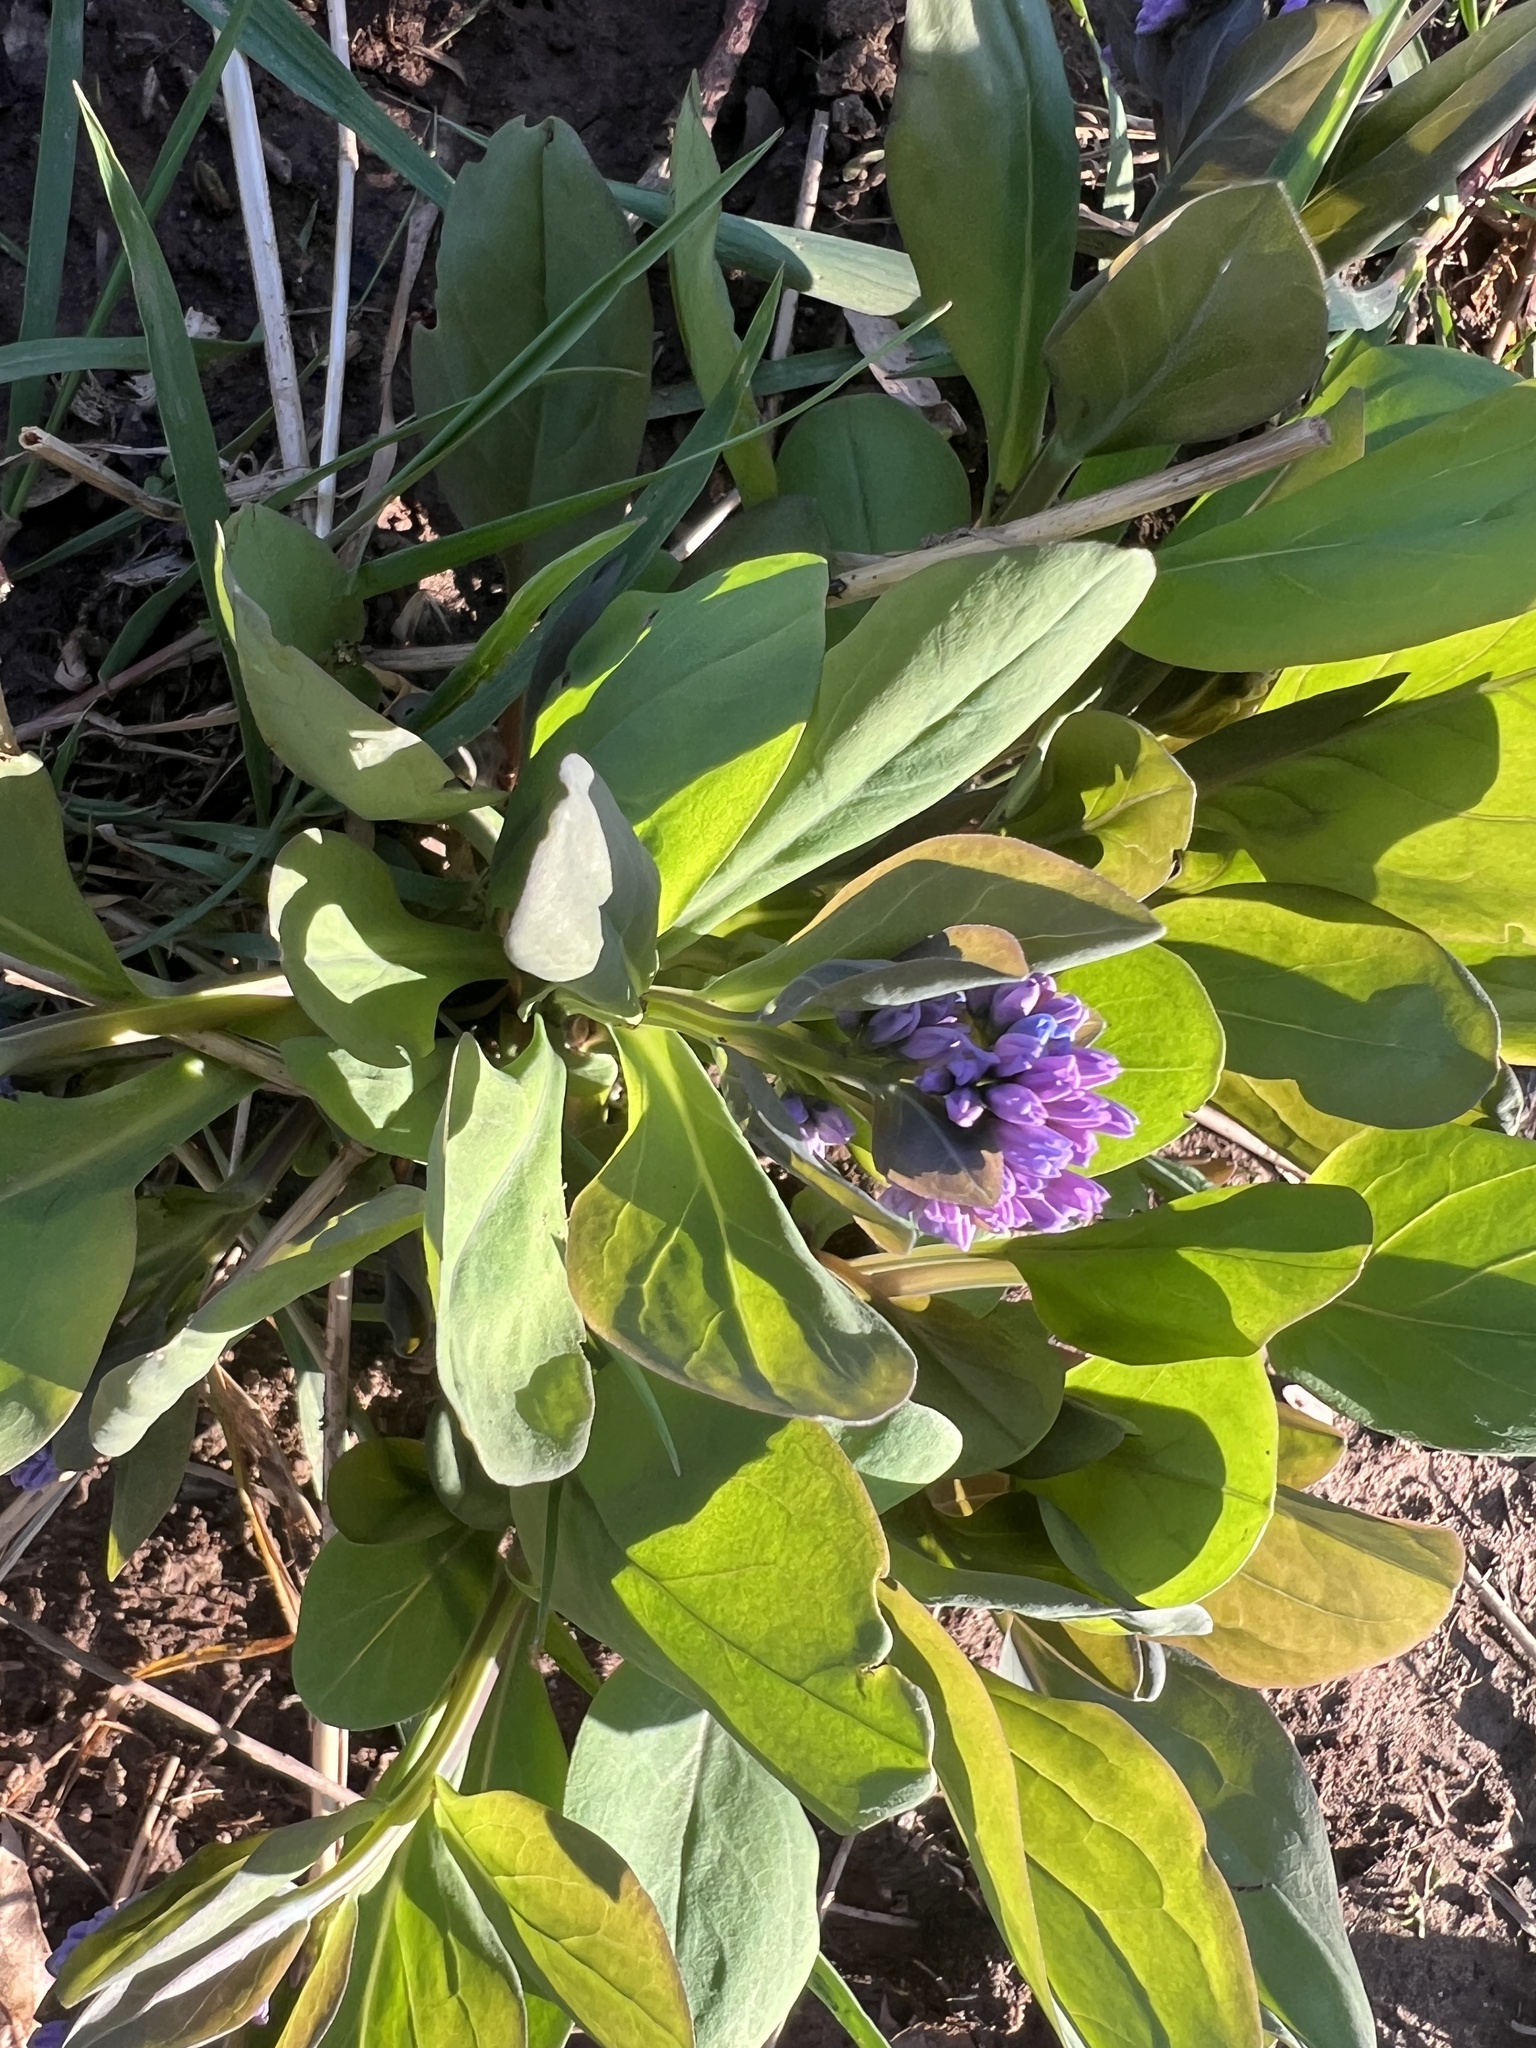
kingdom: Plantae
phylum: Tracheophyta
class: Magnoliopsida
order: Boraginales
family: Boraginaceae
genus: Mertensia
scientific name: Mertensia virginica
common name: Virginia bluebells
